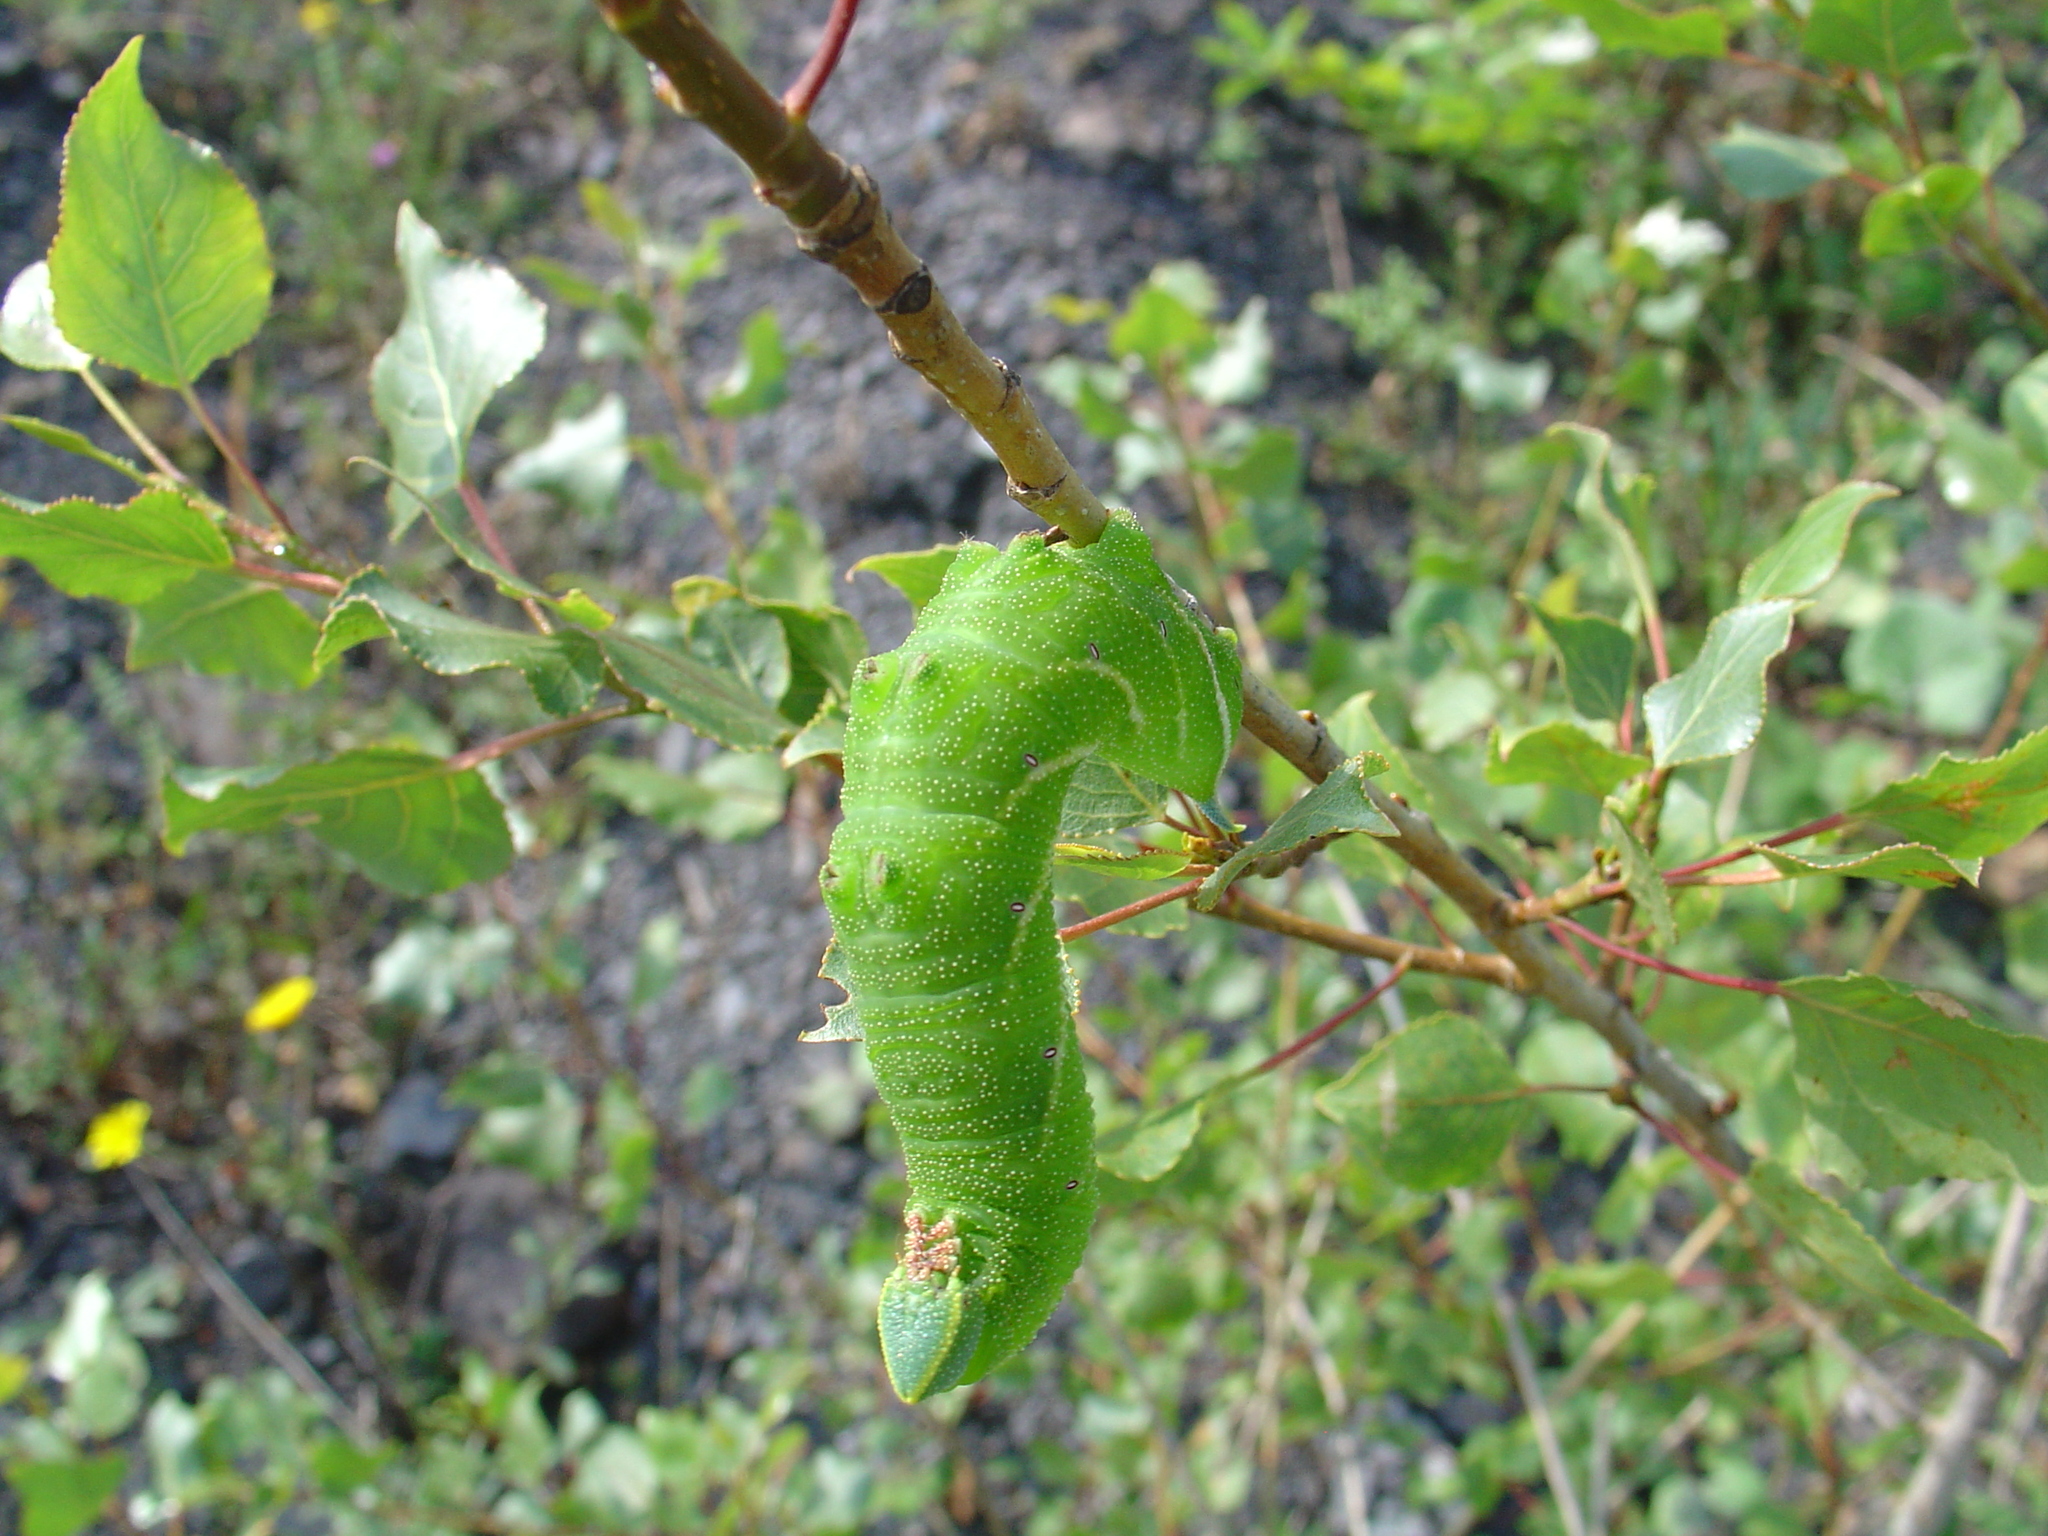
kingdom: Animalia
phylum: Arthropoda
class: Insecta
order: Lepidoptera
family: Sphingidae
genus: Smerinthus
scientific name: Smerinthus ocellata
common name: Eyed hawk-moth
